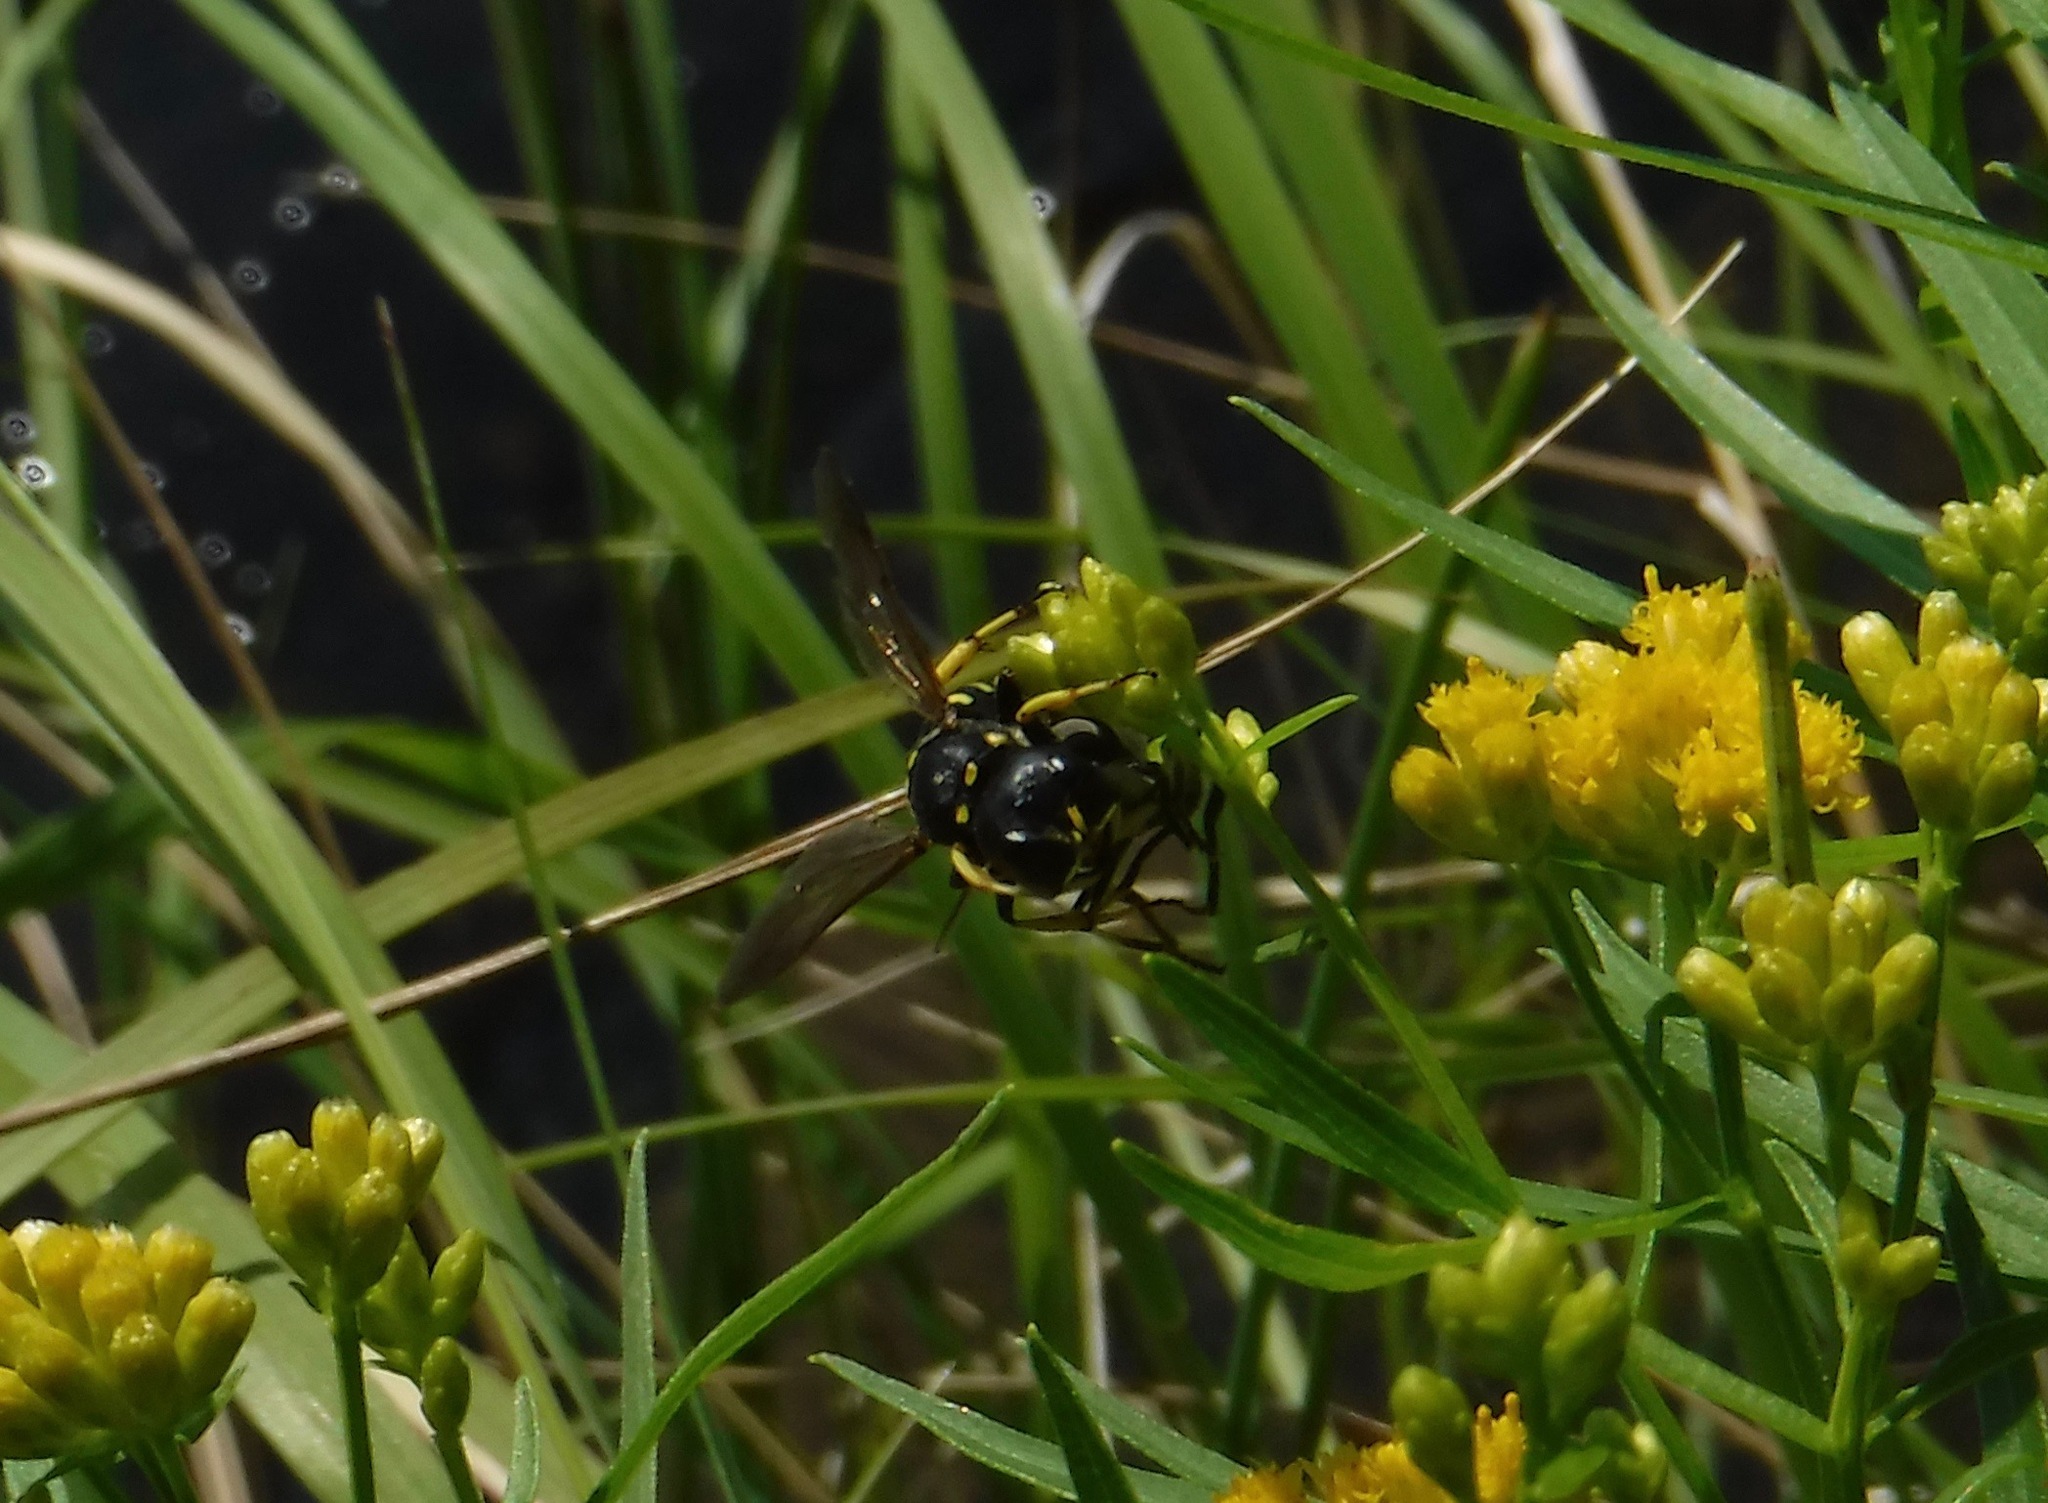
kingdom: Animalia
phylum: Arthropoda
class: Insecta
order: Hymenoptera
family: Crabronidae
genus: Ectemnius
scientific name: Ectemnius maculosus
